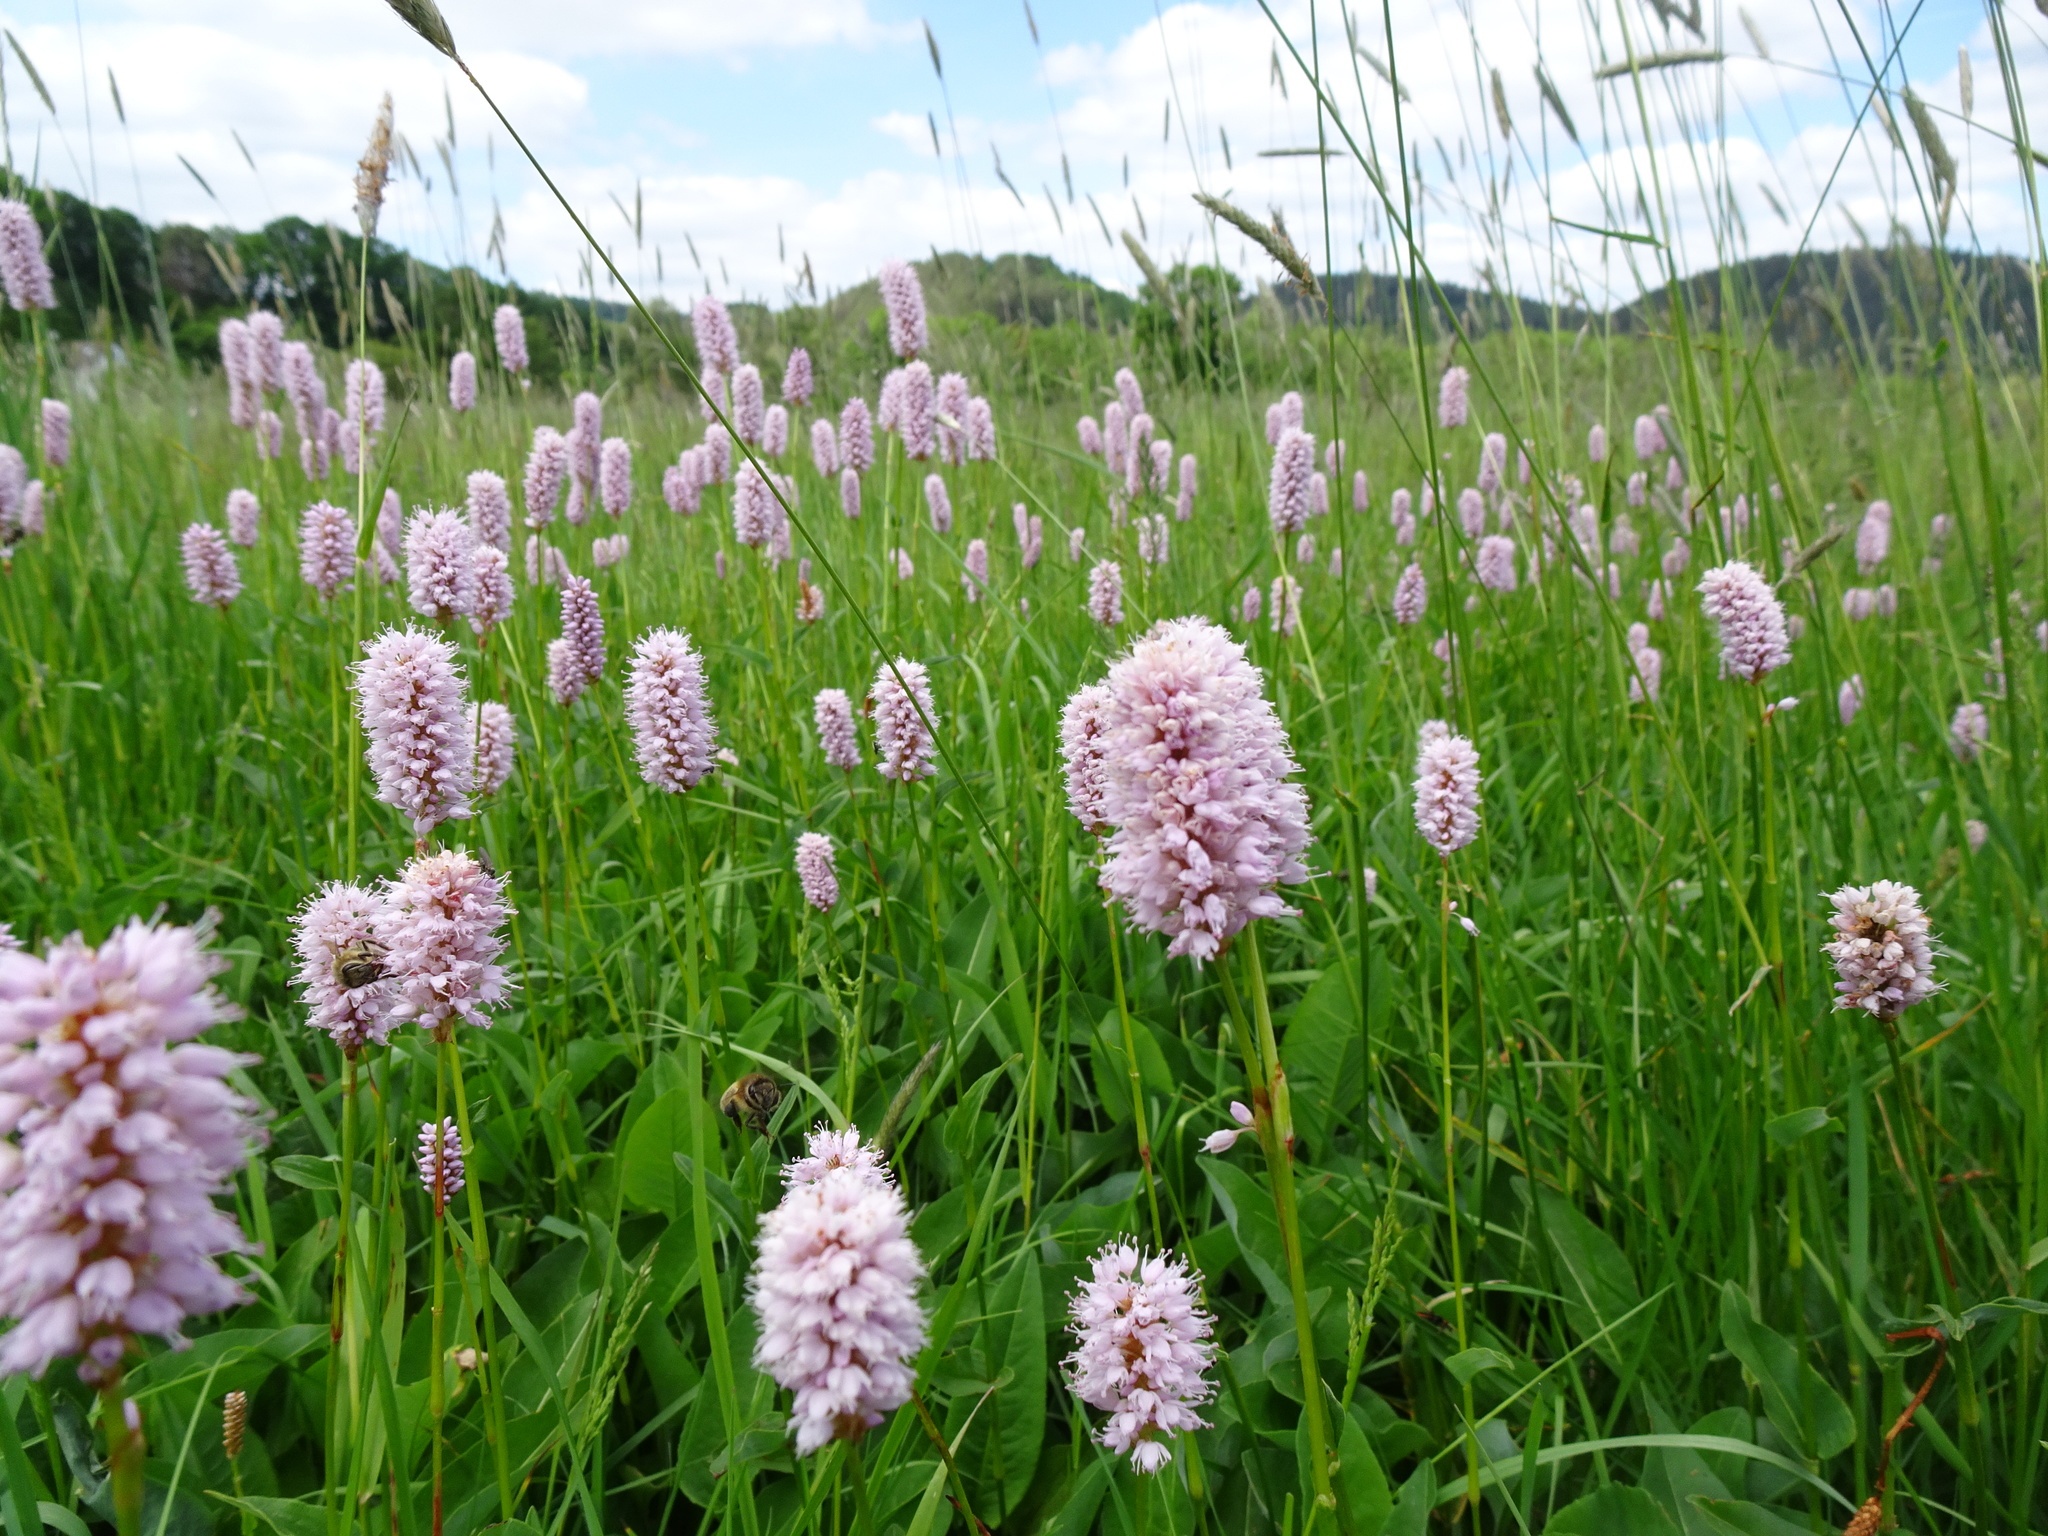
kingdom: Plantae
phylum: Tracheophyta
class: Magnoliopsida
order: Caryophyllales
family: Polygonaceae
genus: Bistorta
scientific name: Bistorta officinalis
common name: Common bistort
